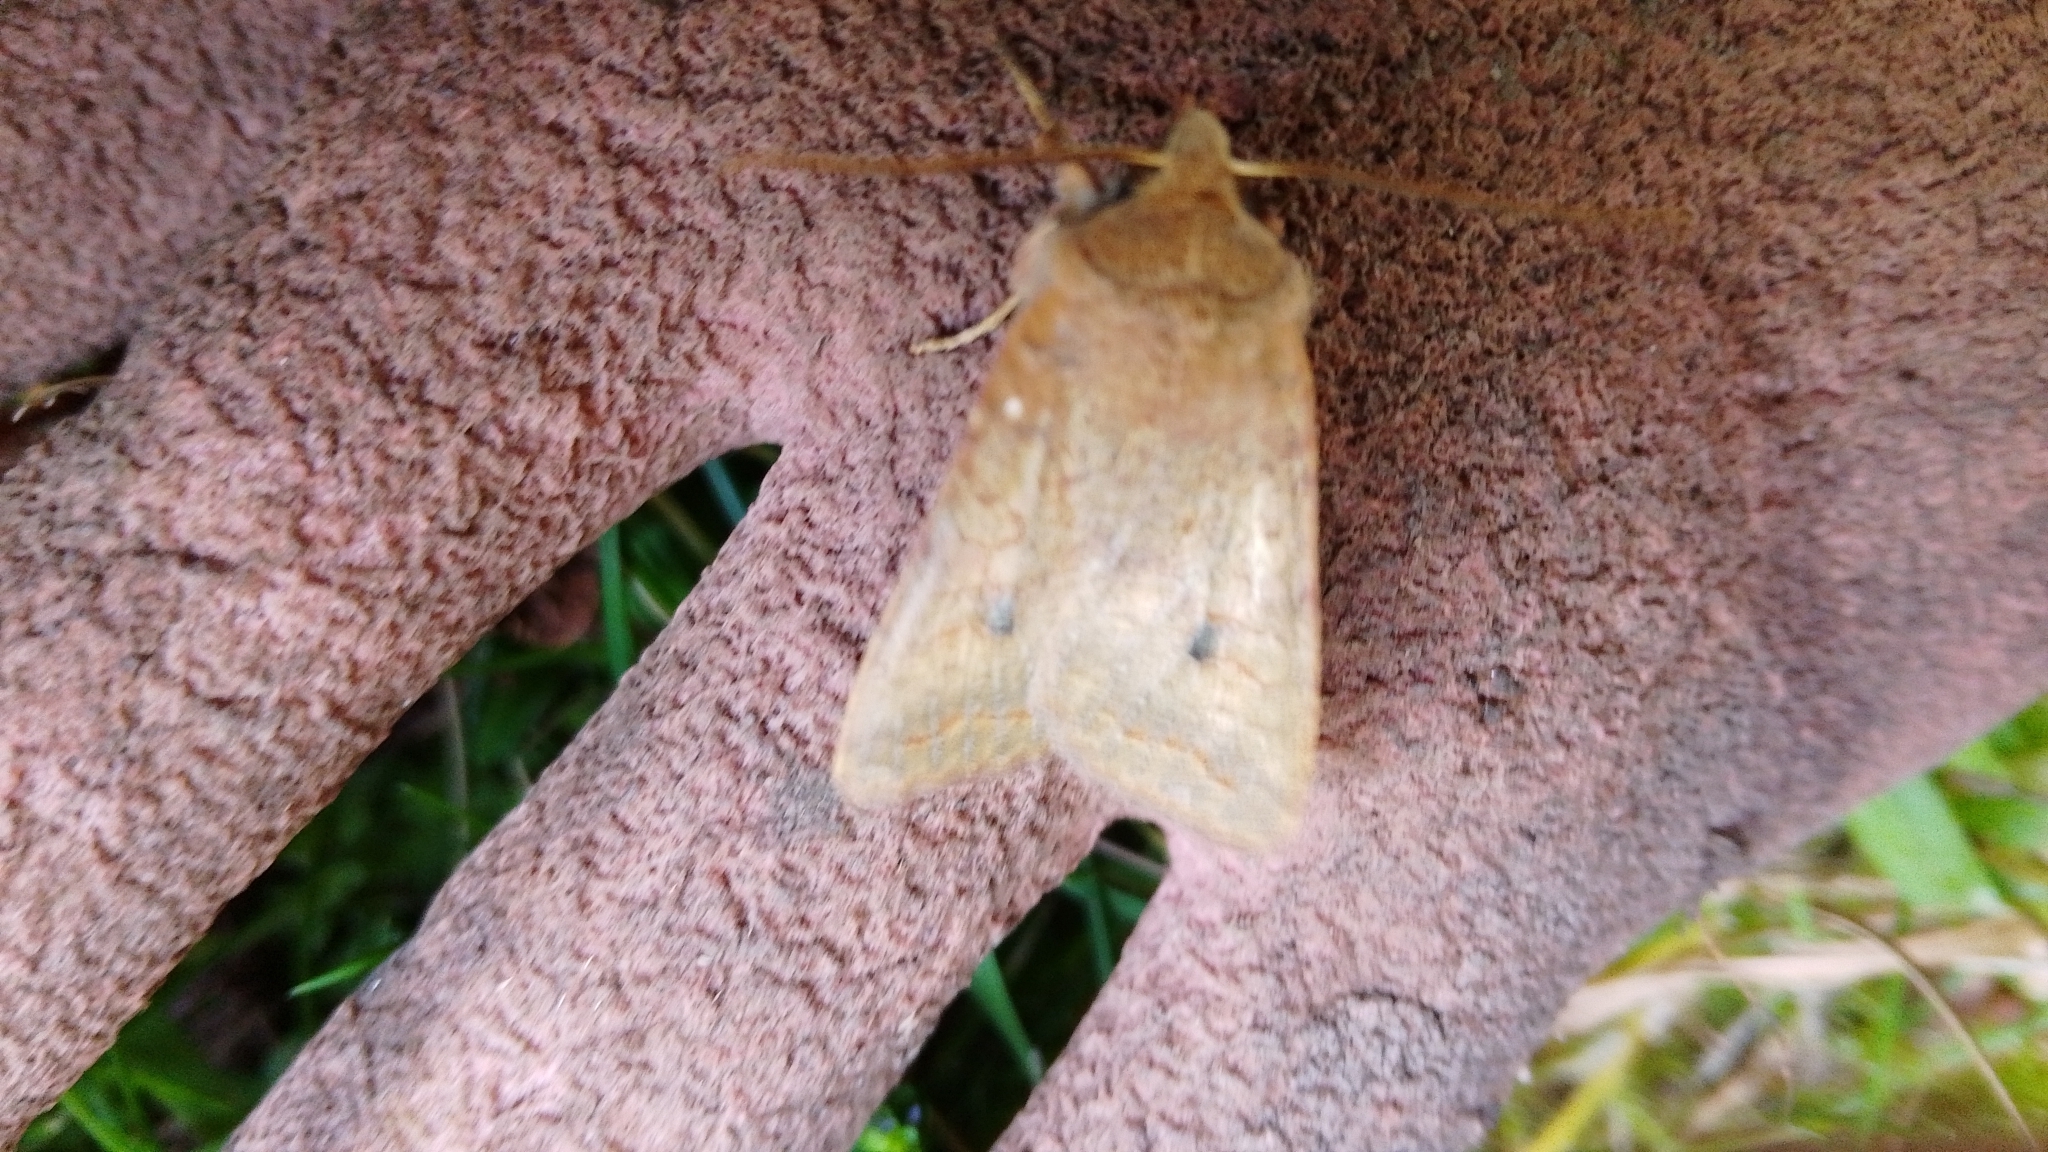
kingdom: Animalia
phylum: Arthropoda
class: Insecta
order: Lepidoptera
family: Noctuidae
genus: Sunira
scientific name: Sunira circellaris
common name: Brick
